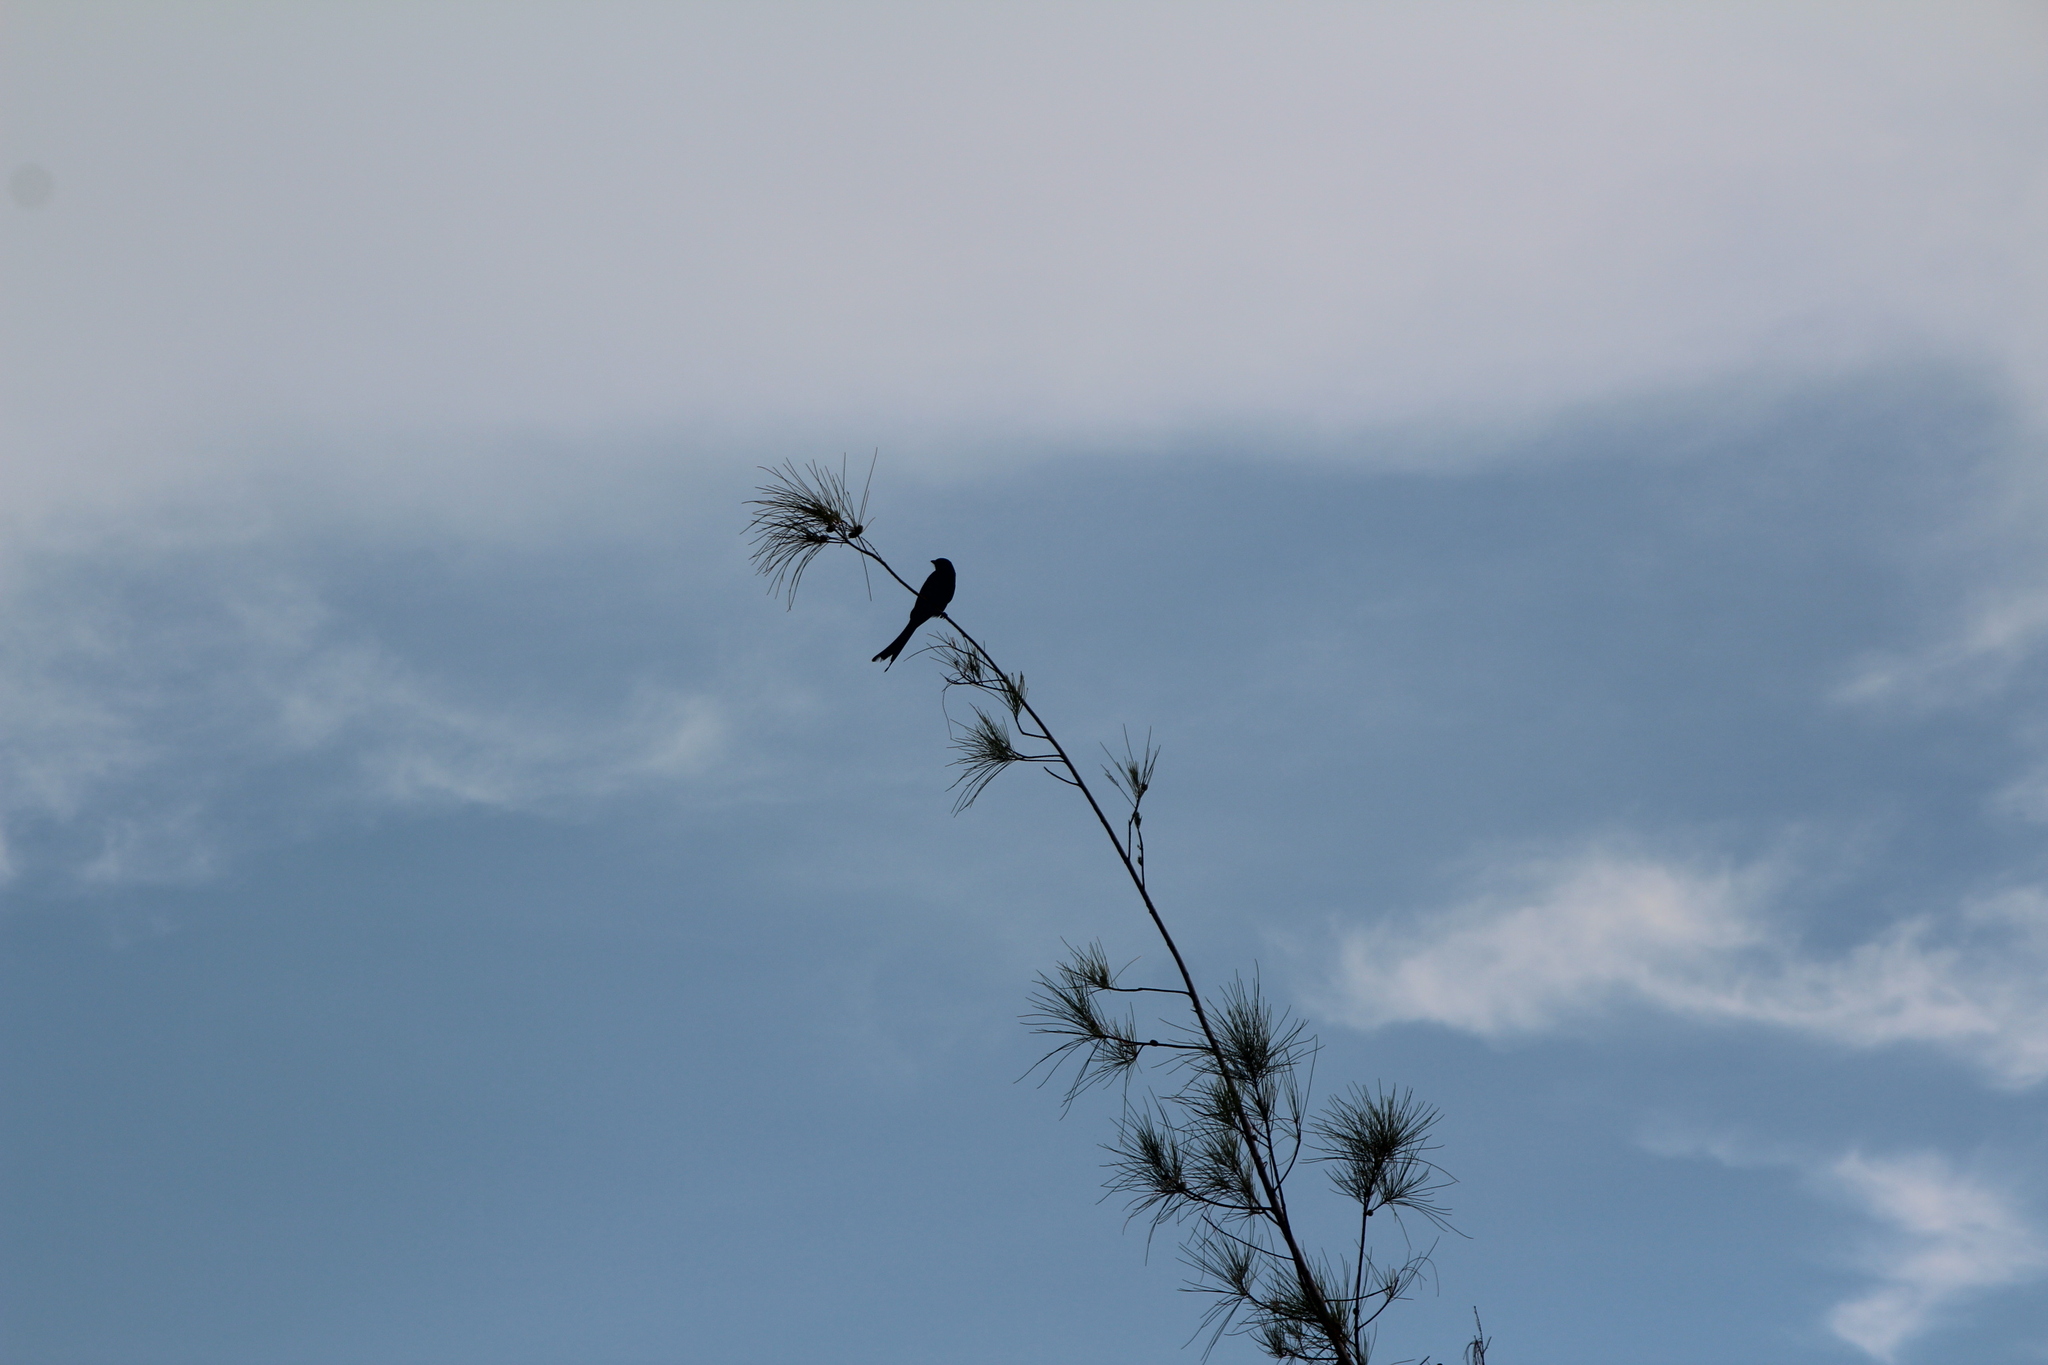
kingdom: Animalia
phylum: Chordata
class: Aves
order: Passeriformes
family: Dicruridae
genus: Dicrurus
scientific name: Dicrurus macrocercus
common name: Black drongo
